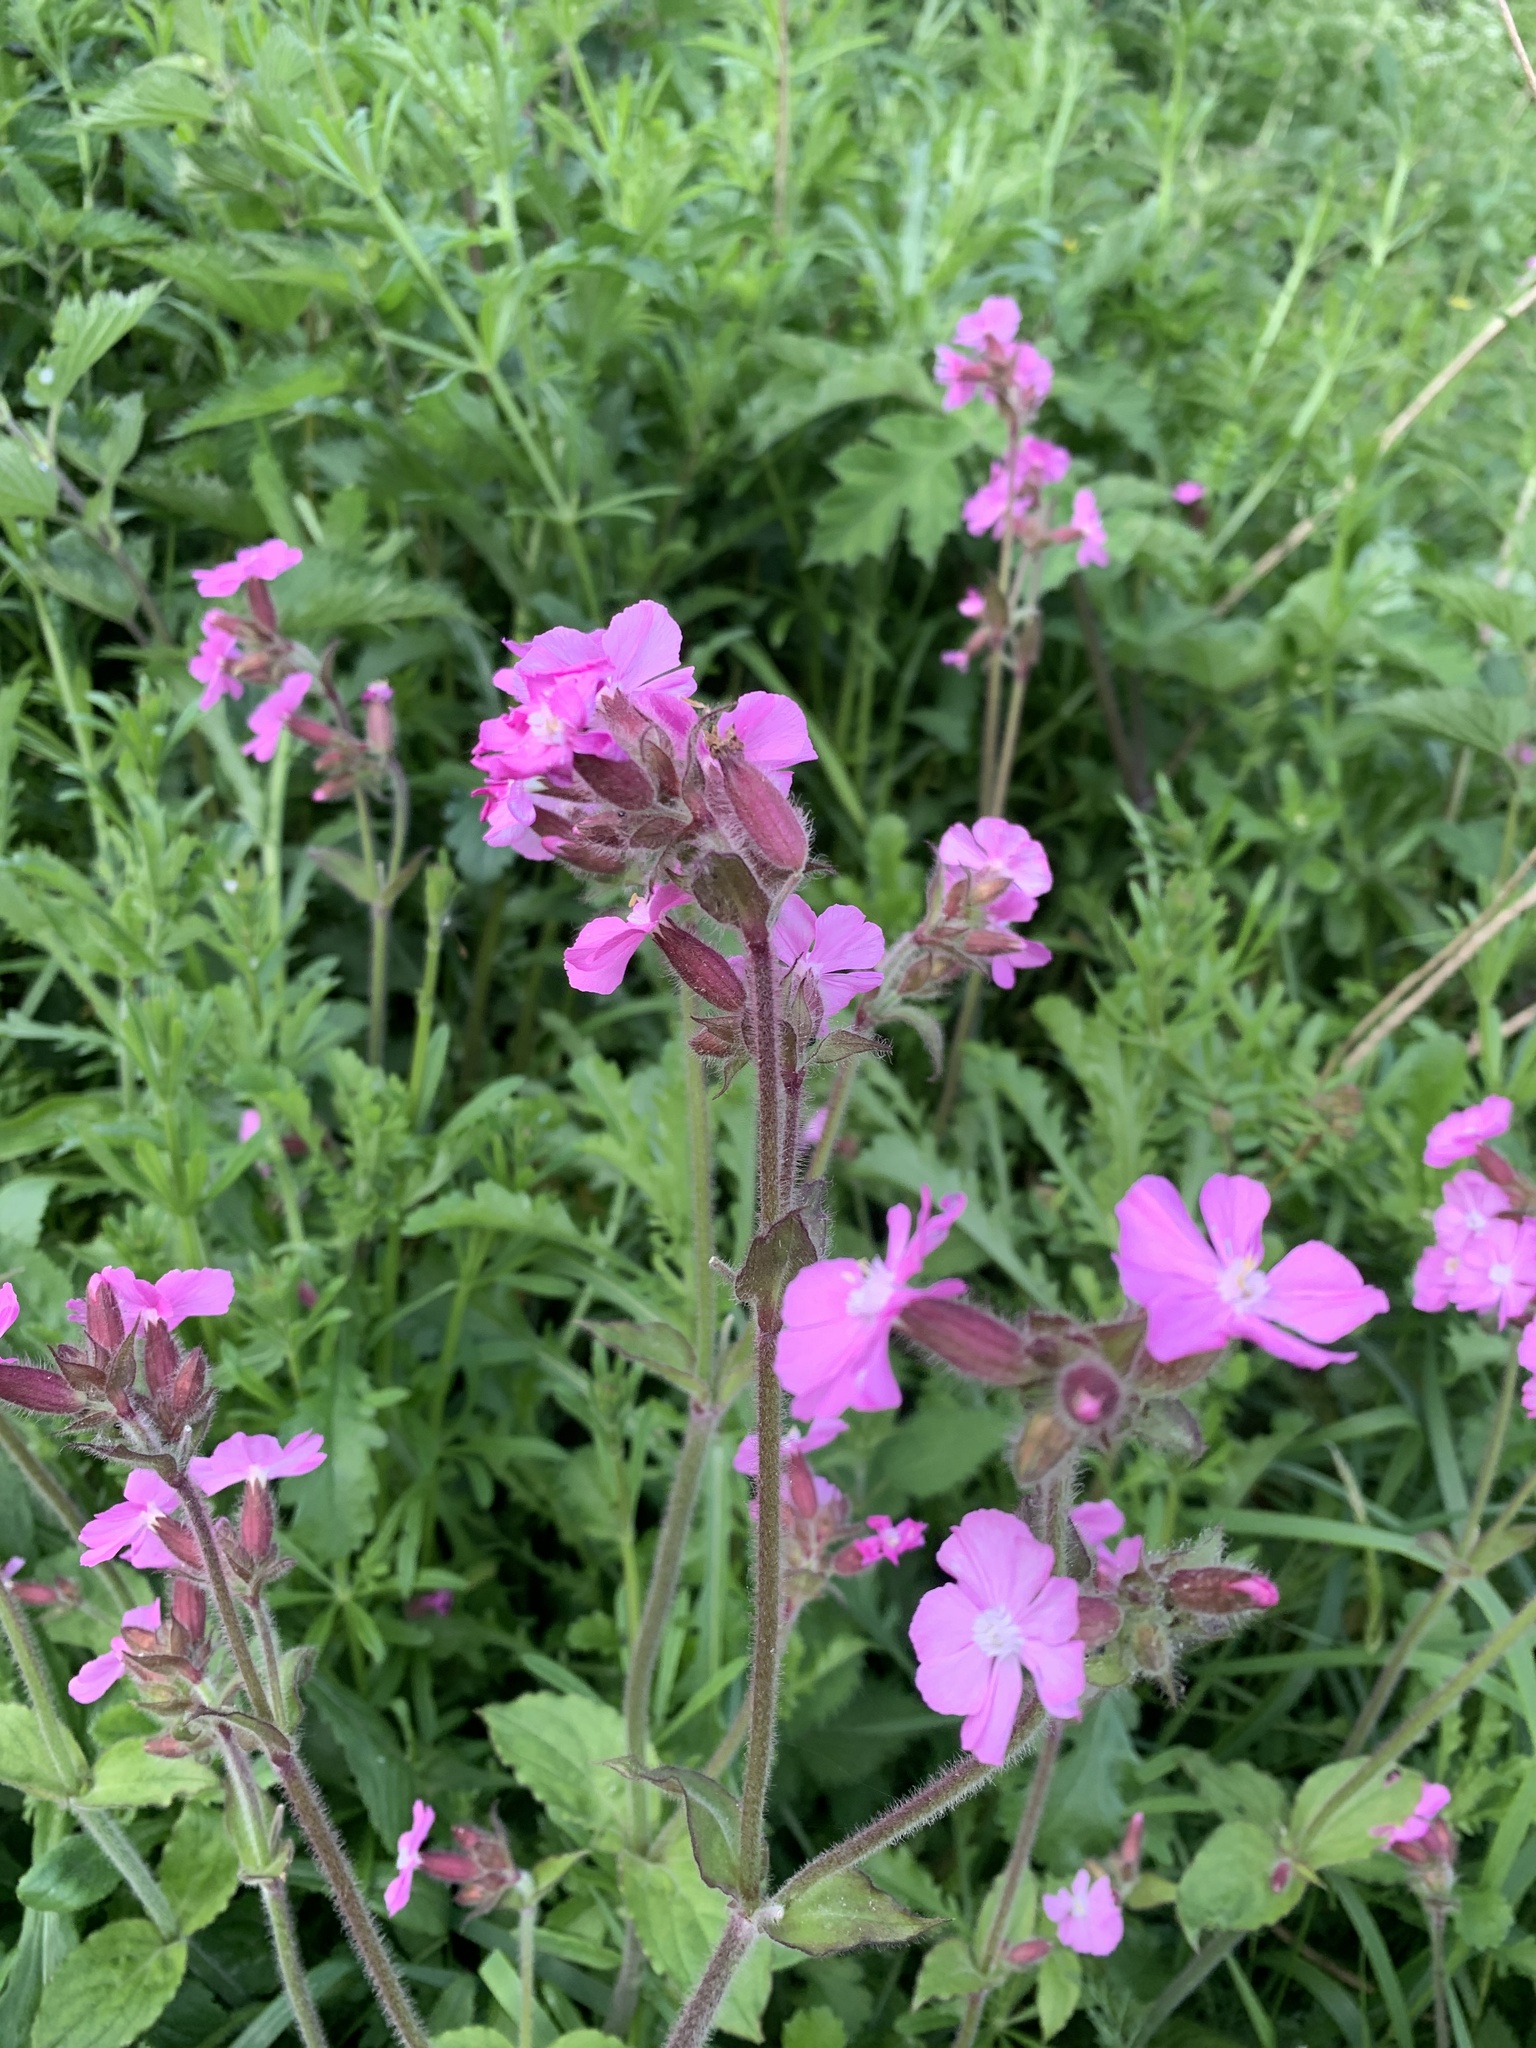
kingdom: Plantae
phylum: Tracheophyta
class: Magnoliopsida
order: Caryophyllales
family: Caryophyllaceae
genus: Silene
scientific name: Silene dioica
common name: Red campion
